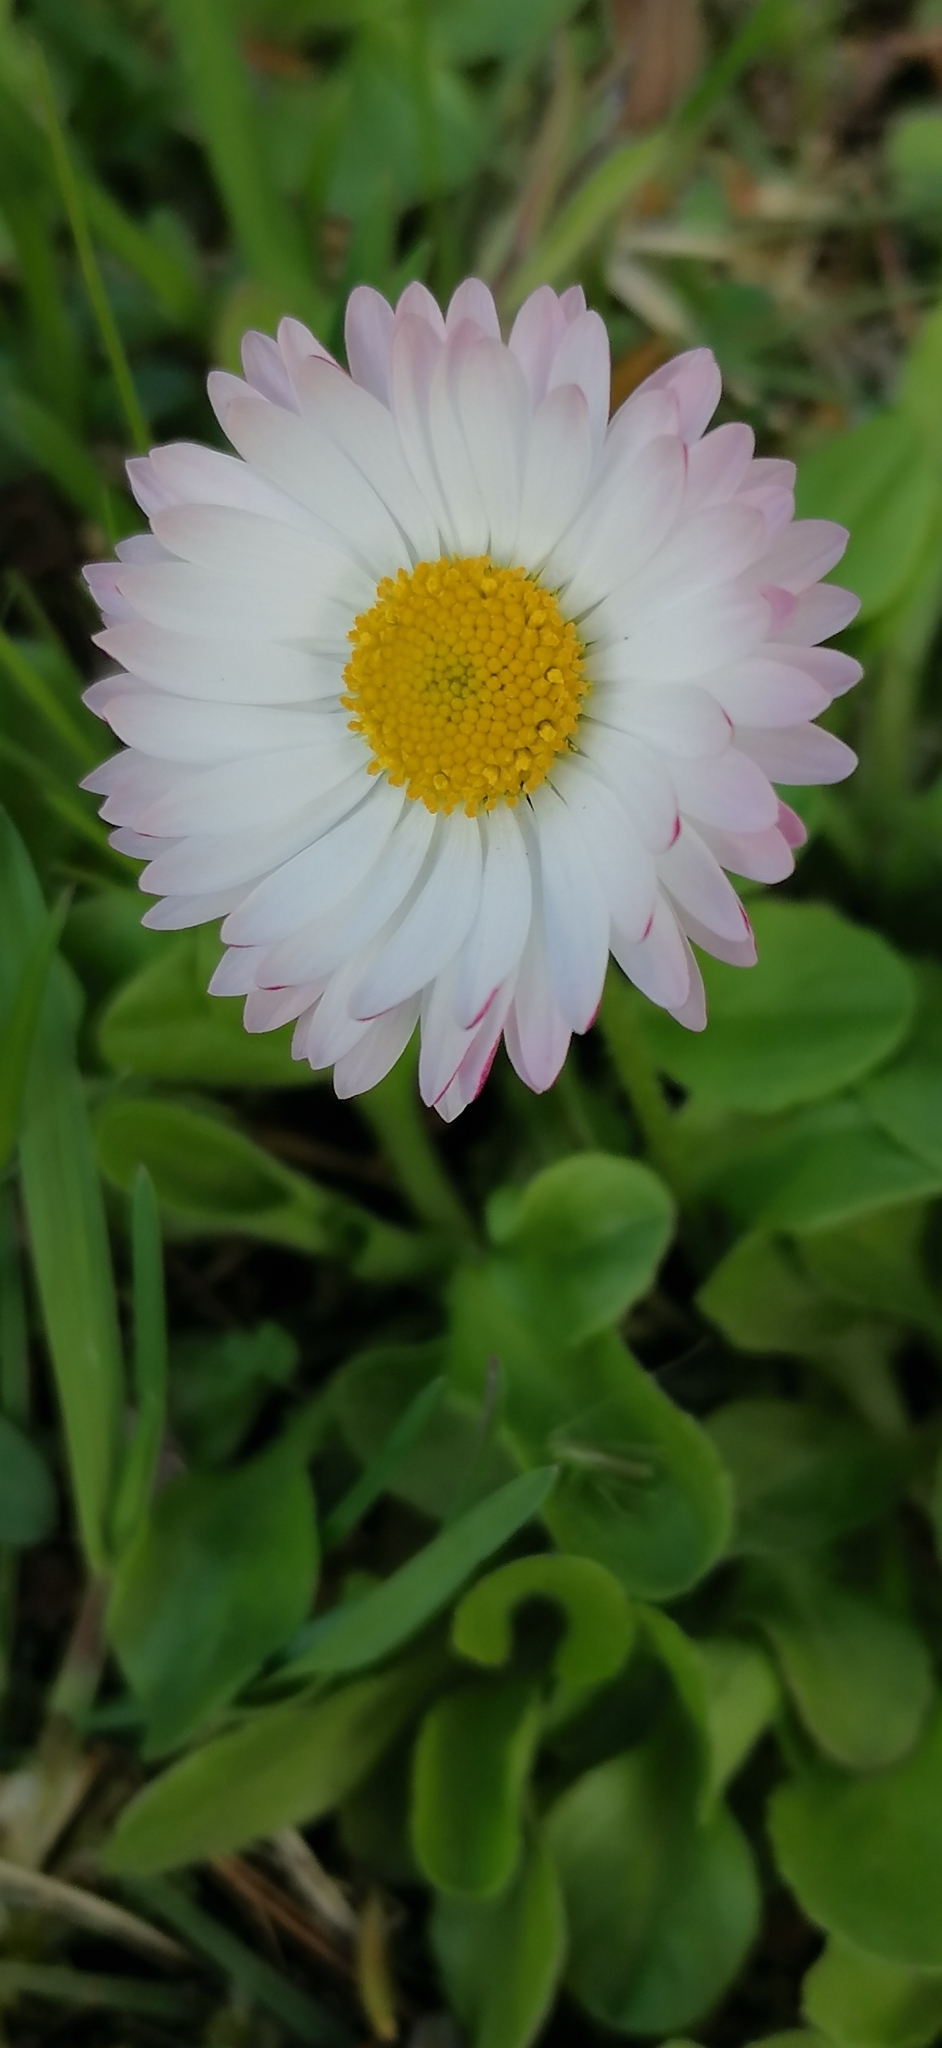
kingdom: Plantae
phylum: Tracheophyta
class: Magnoliopsida
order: Asterales
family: Asteraceae
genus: Bellis
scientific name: Bellis perennis
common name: Lawndaisy
